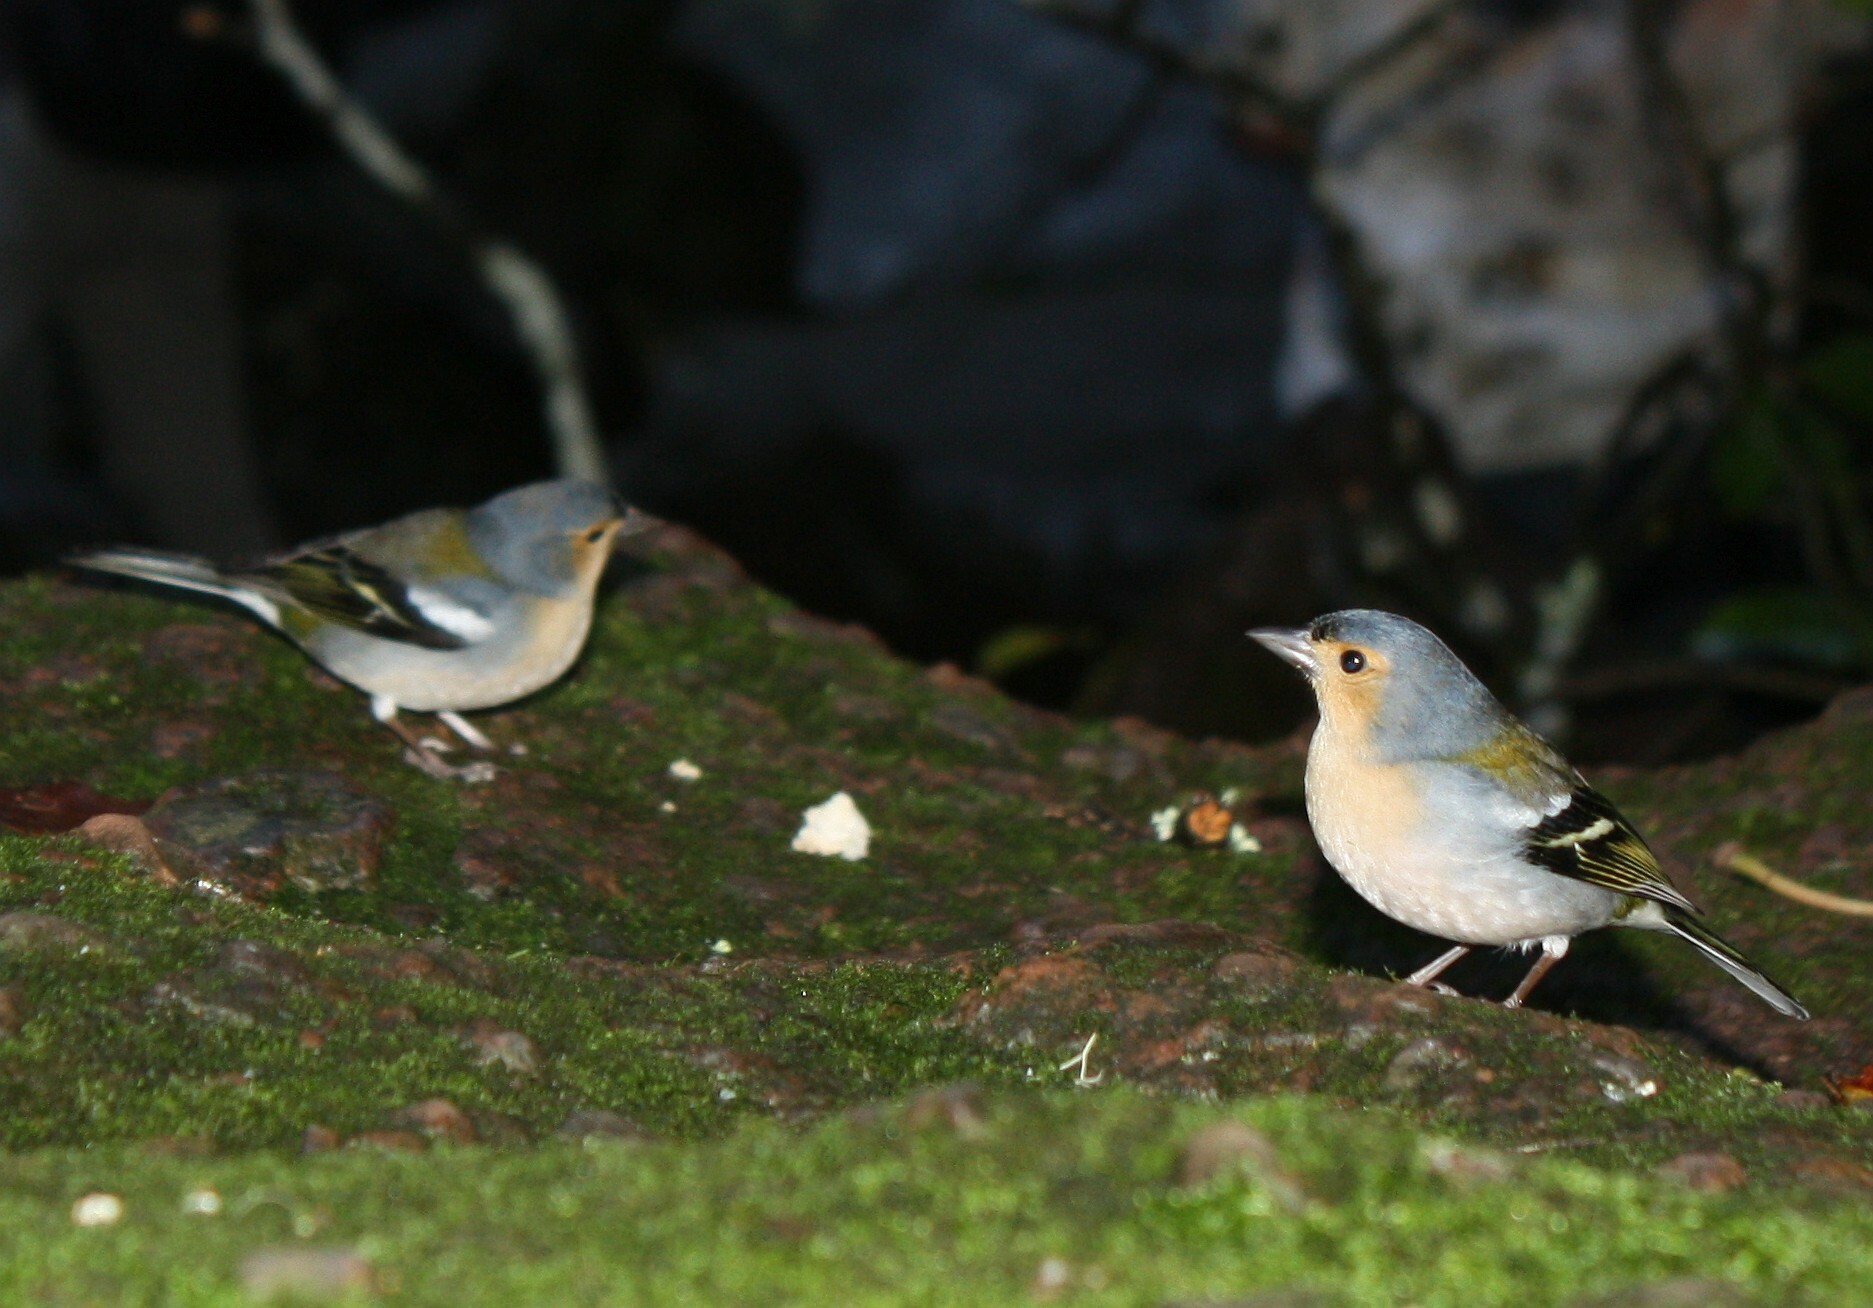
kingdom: Animalia
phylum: Chordata
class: Aves
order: Passeriformes
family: Fringillidae
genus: Fringilla
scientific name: Fringilla maderensis
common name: Madeira chaffinch
